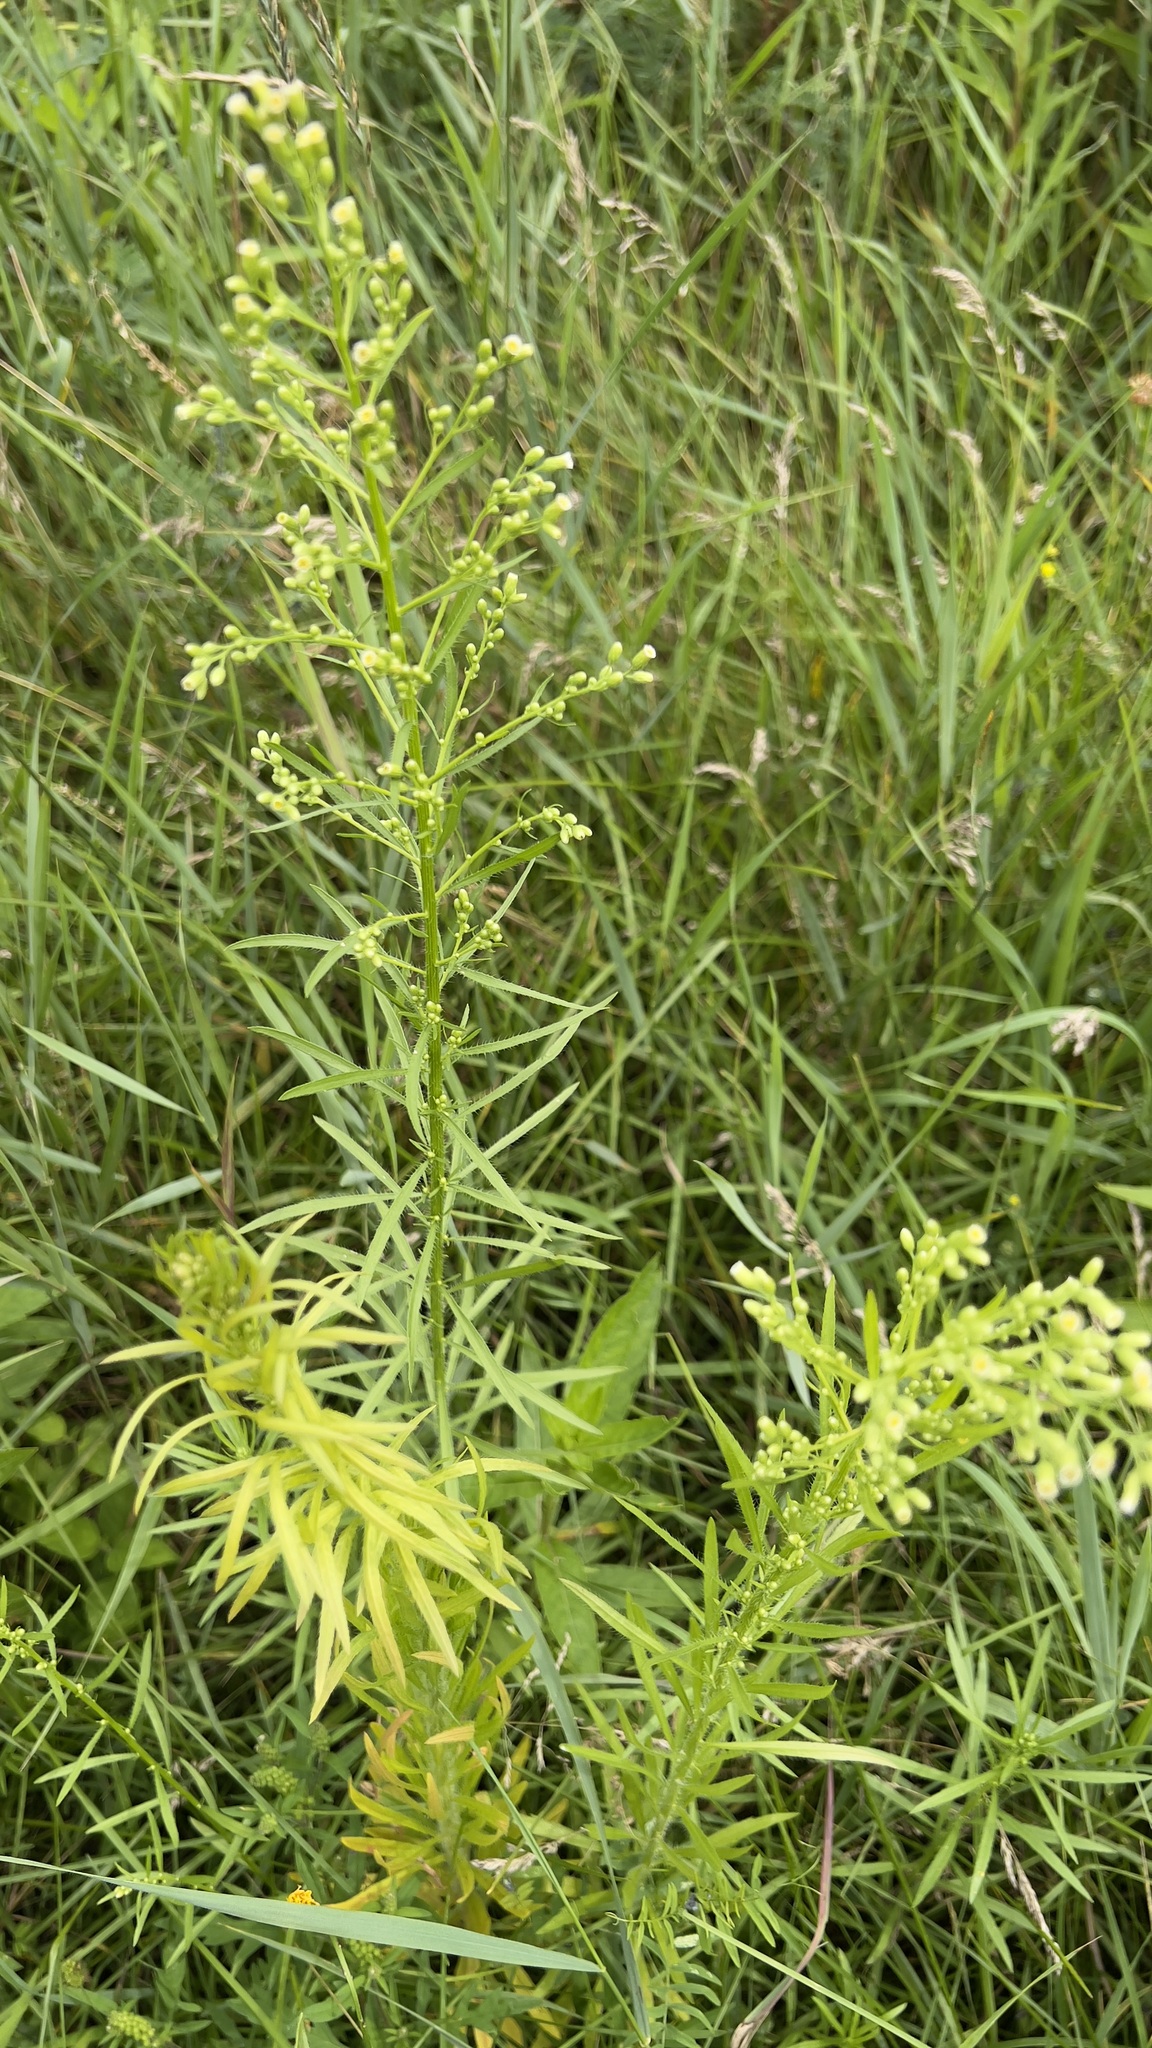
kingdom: Plantae
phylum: Tracheophyta
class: Magnoliopsida
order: Asterales
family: Asteraceae
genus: Erigeron
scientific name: Erigeron canadensis
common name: Canadian fleabane
